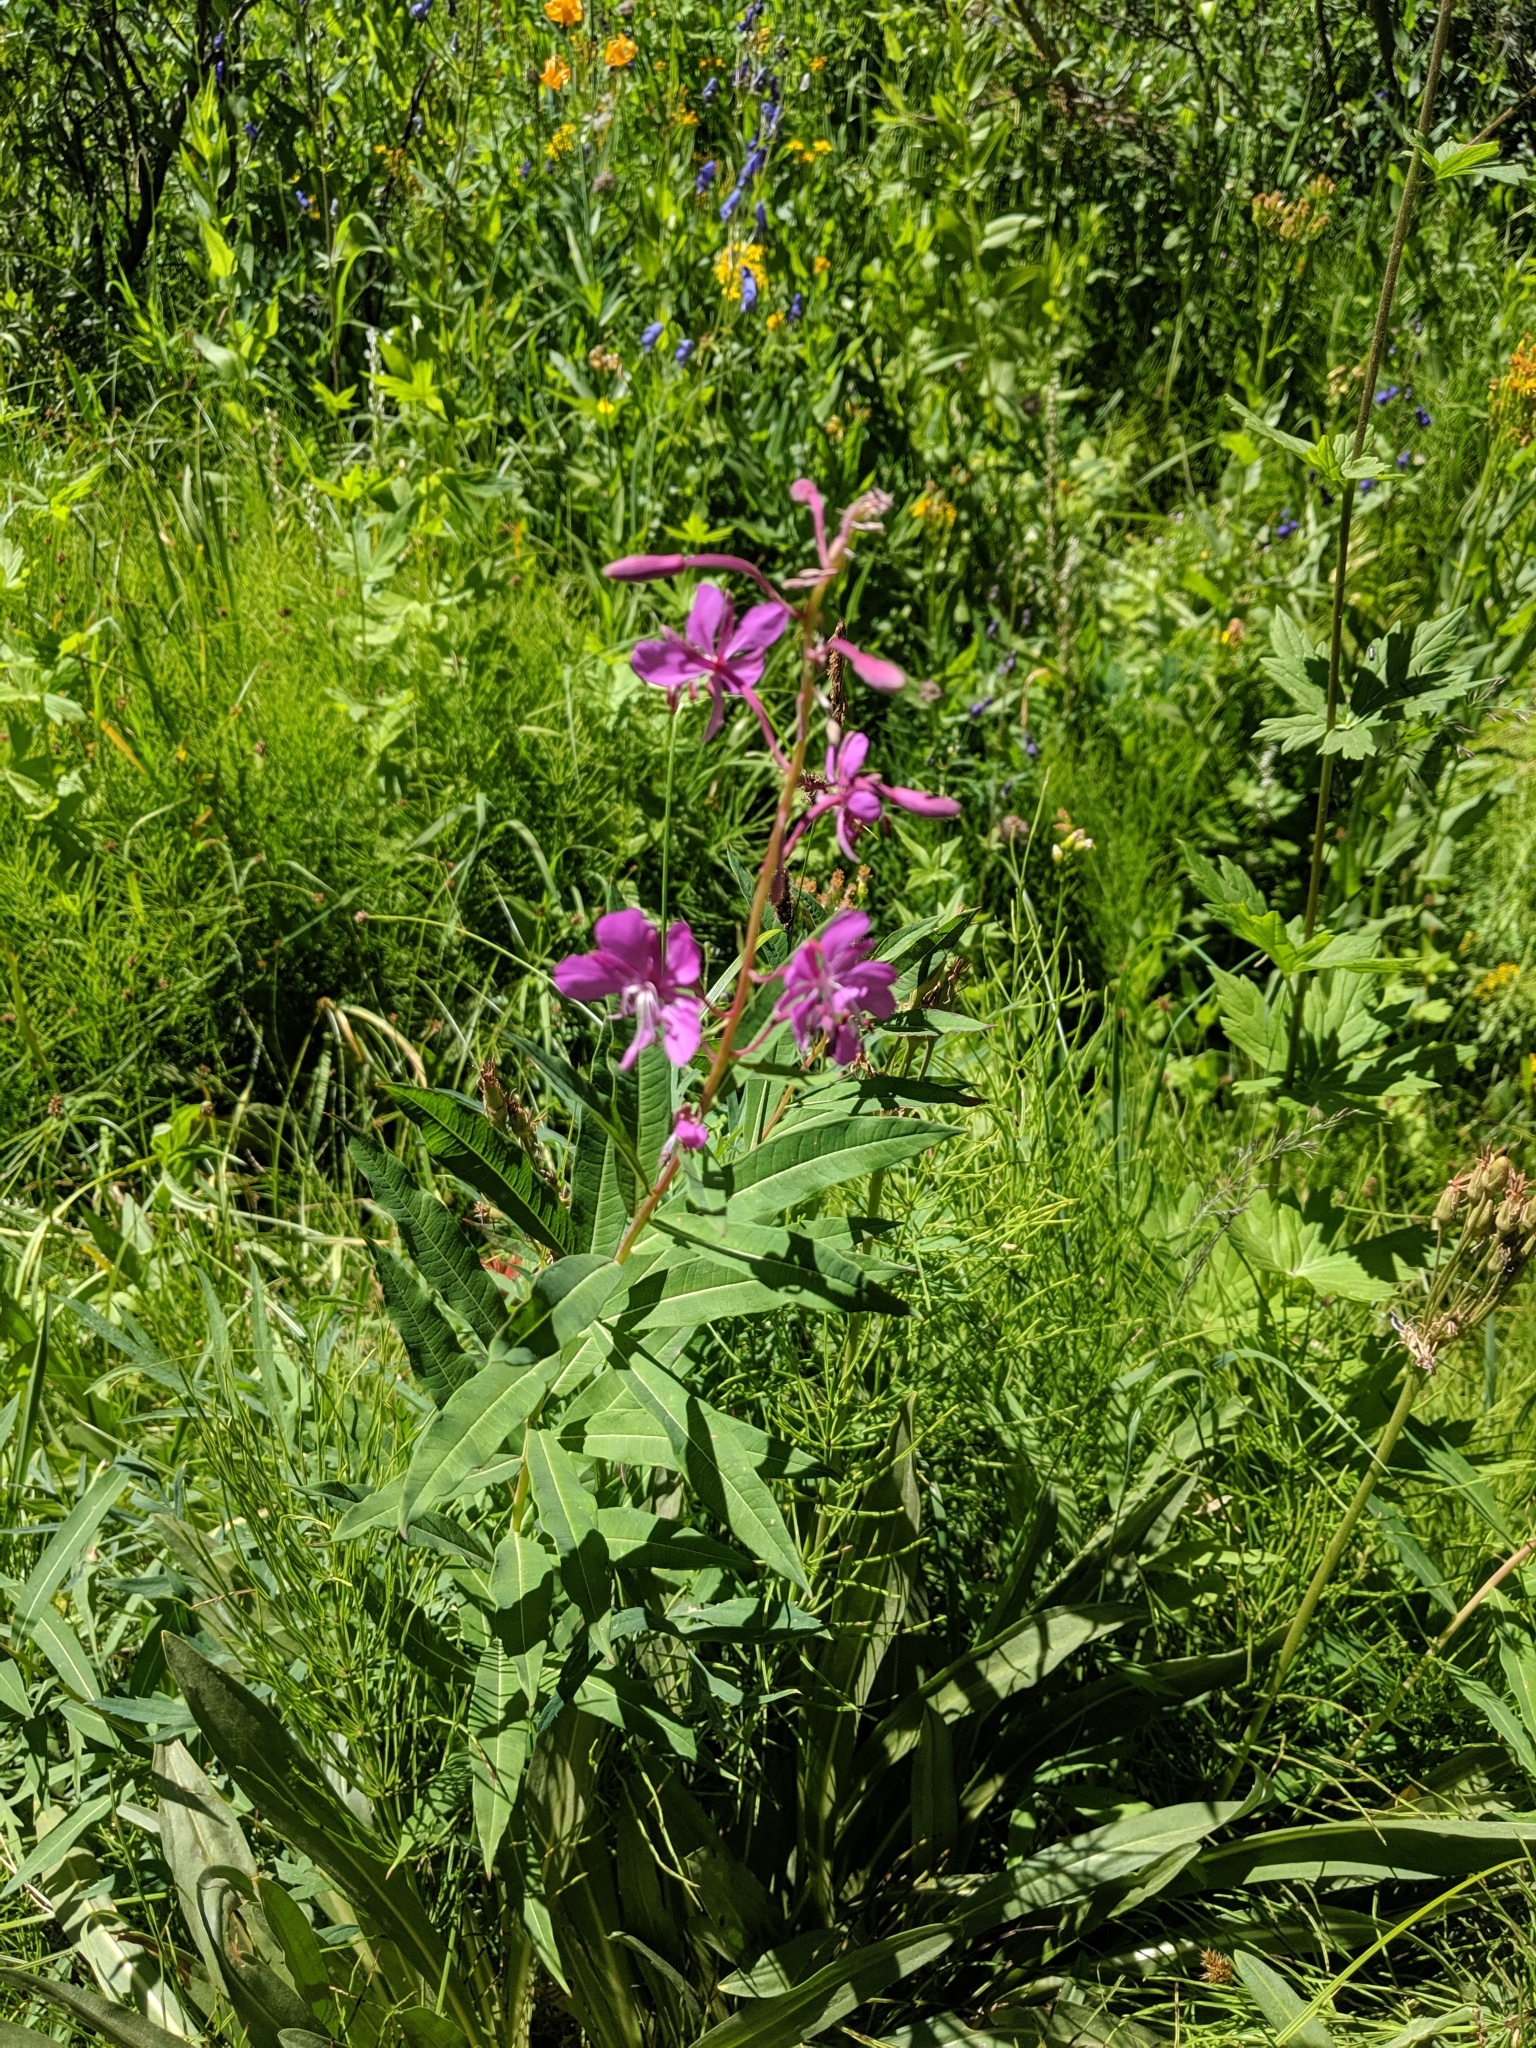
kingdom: Plantae
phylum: Tracheophyta
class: Magnoliopsida
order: Myrtales
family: Onagraceae
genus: Chamaenerion
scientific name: Chamaenerion angustifolium
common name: Fireweed
